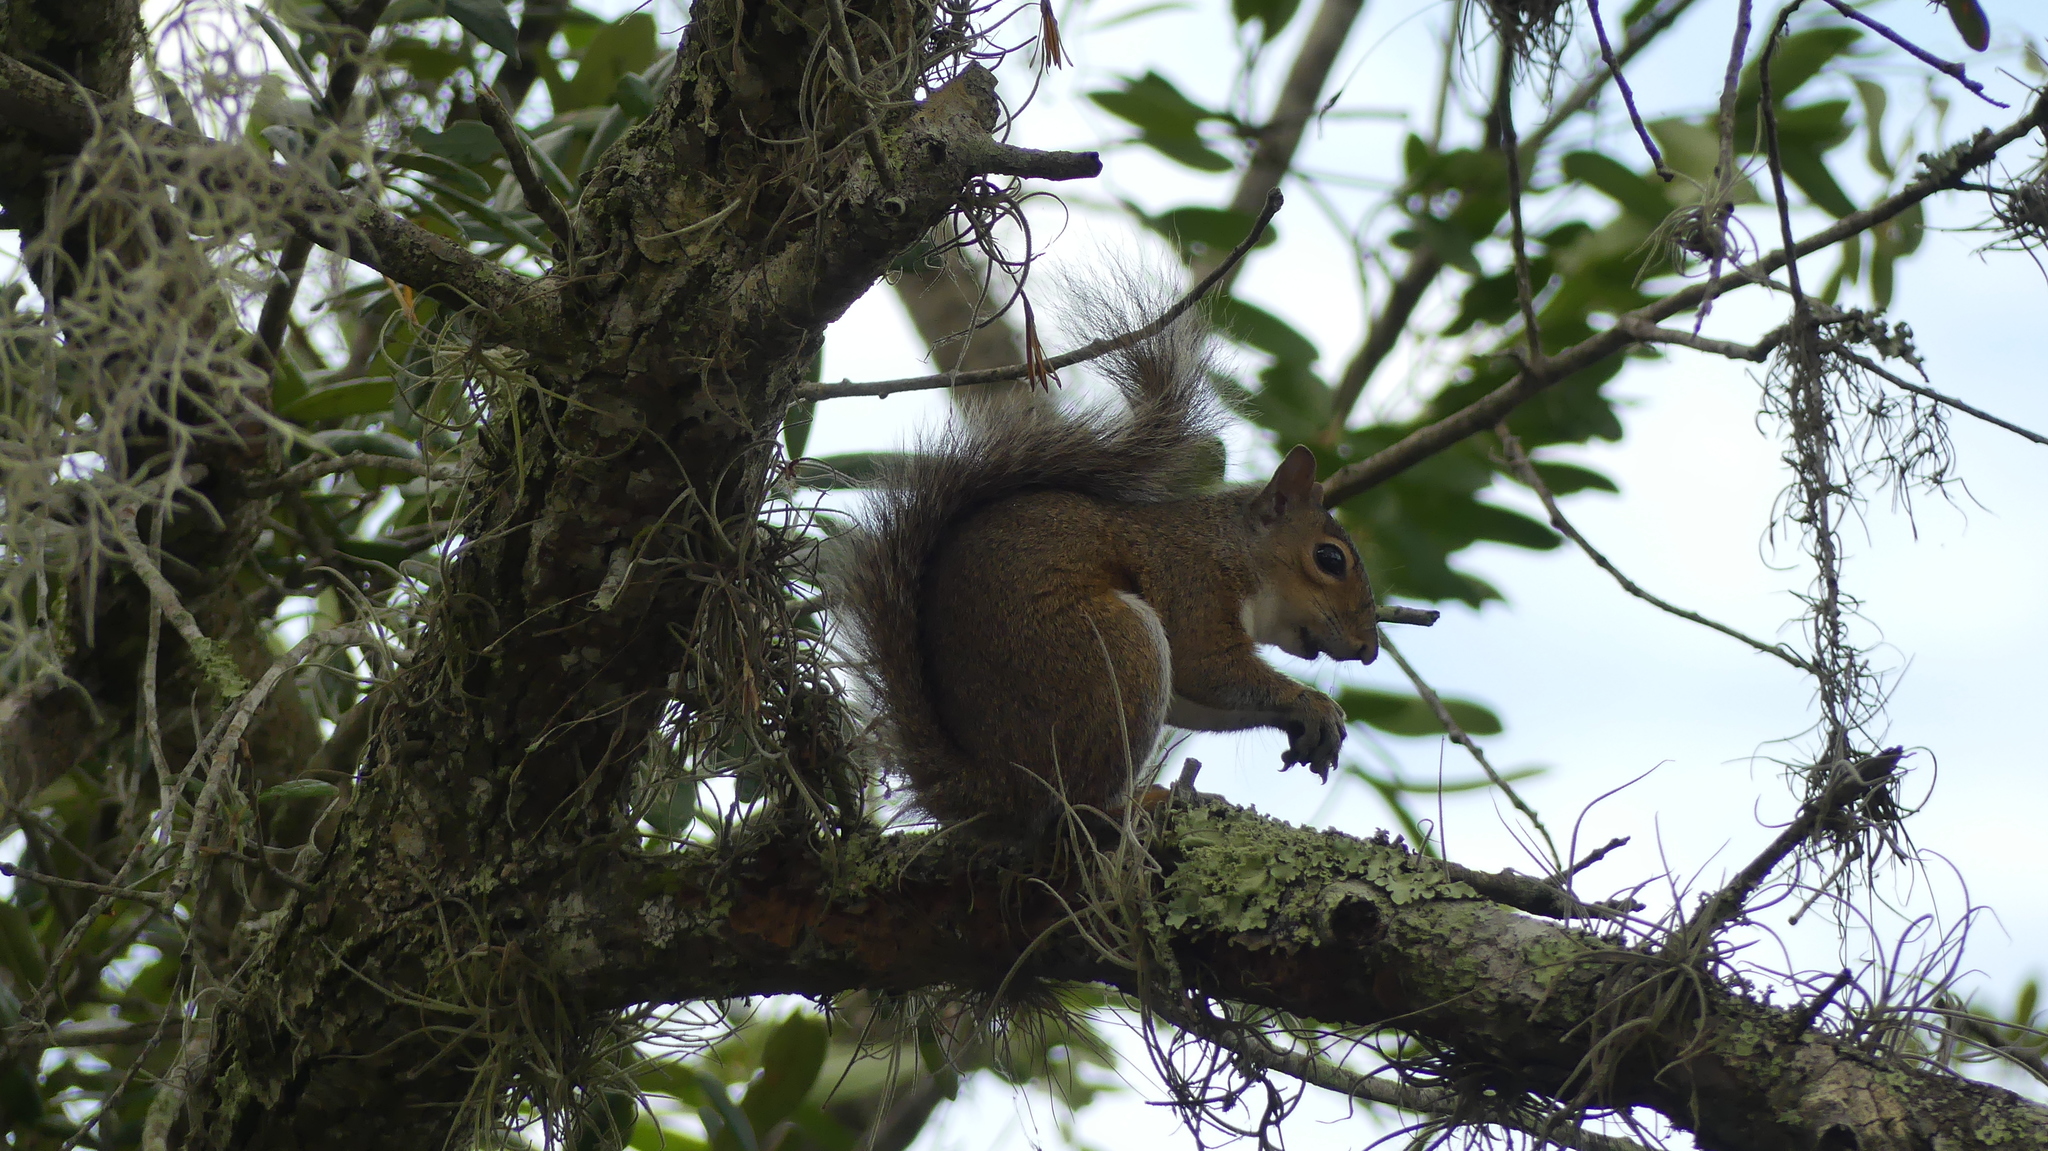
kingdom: Animalia
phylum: Chordata
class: Mammalia
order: Rodentia
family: Sciuridae
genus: Sciurus
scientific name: Sciurus carolinensis
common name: Eastern gray squirrel
